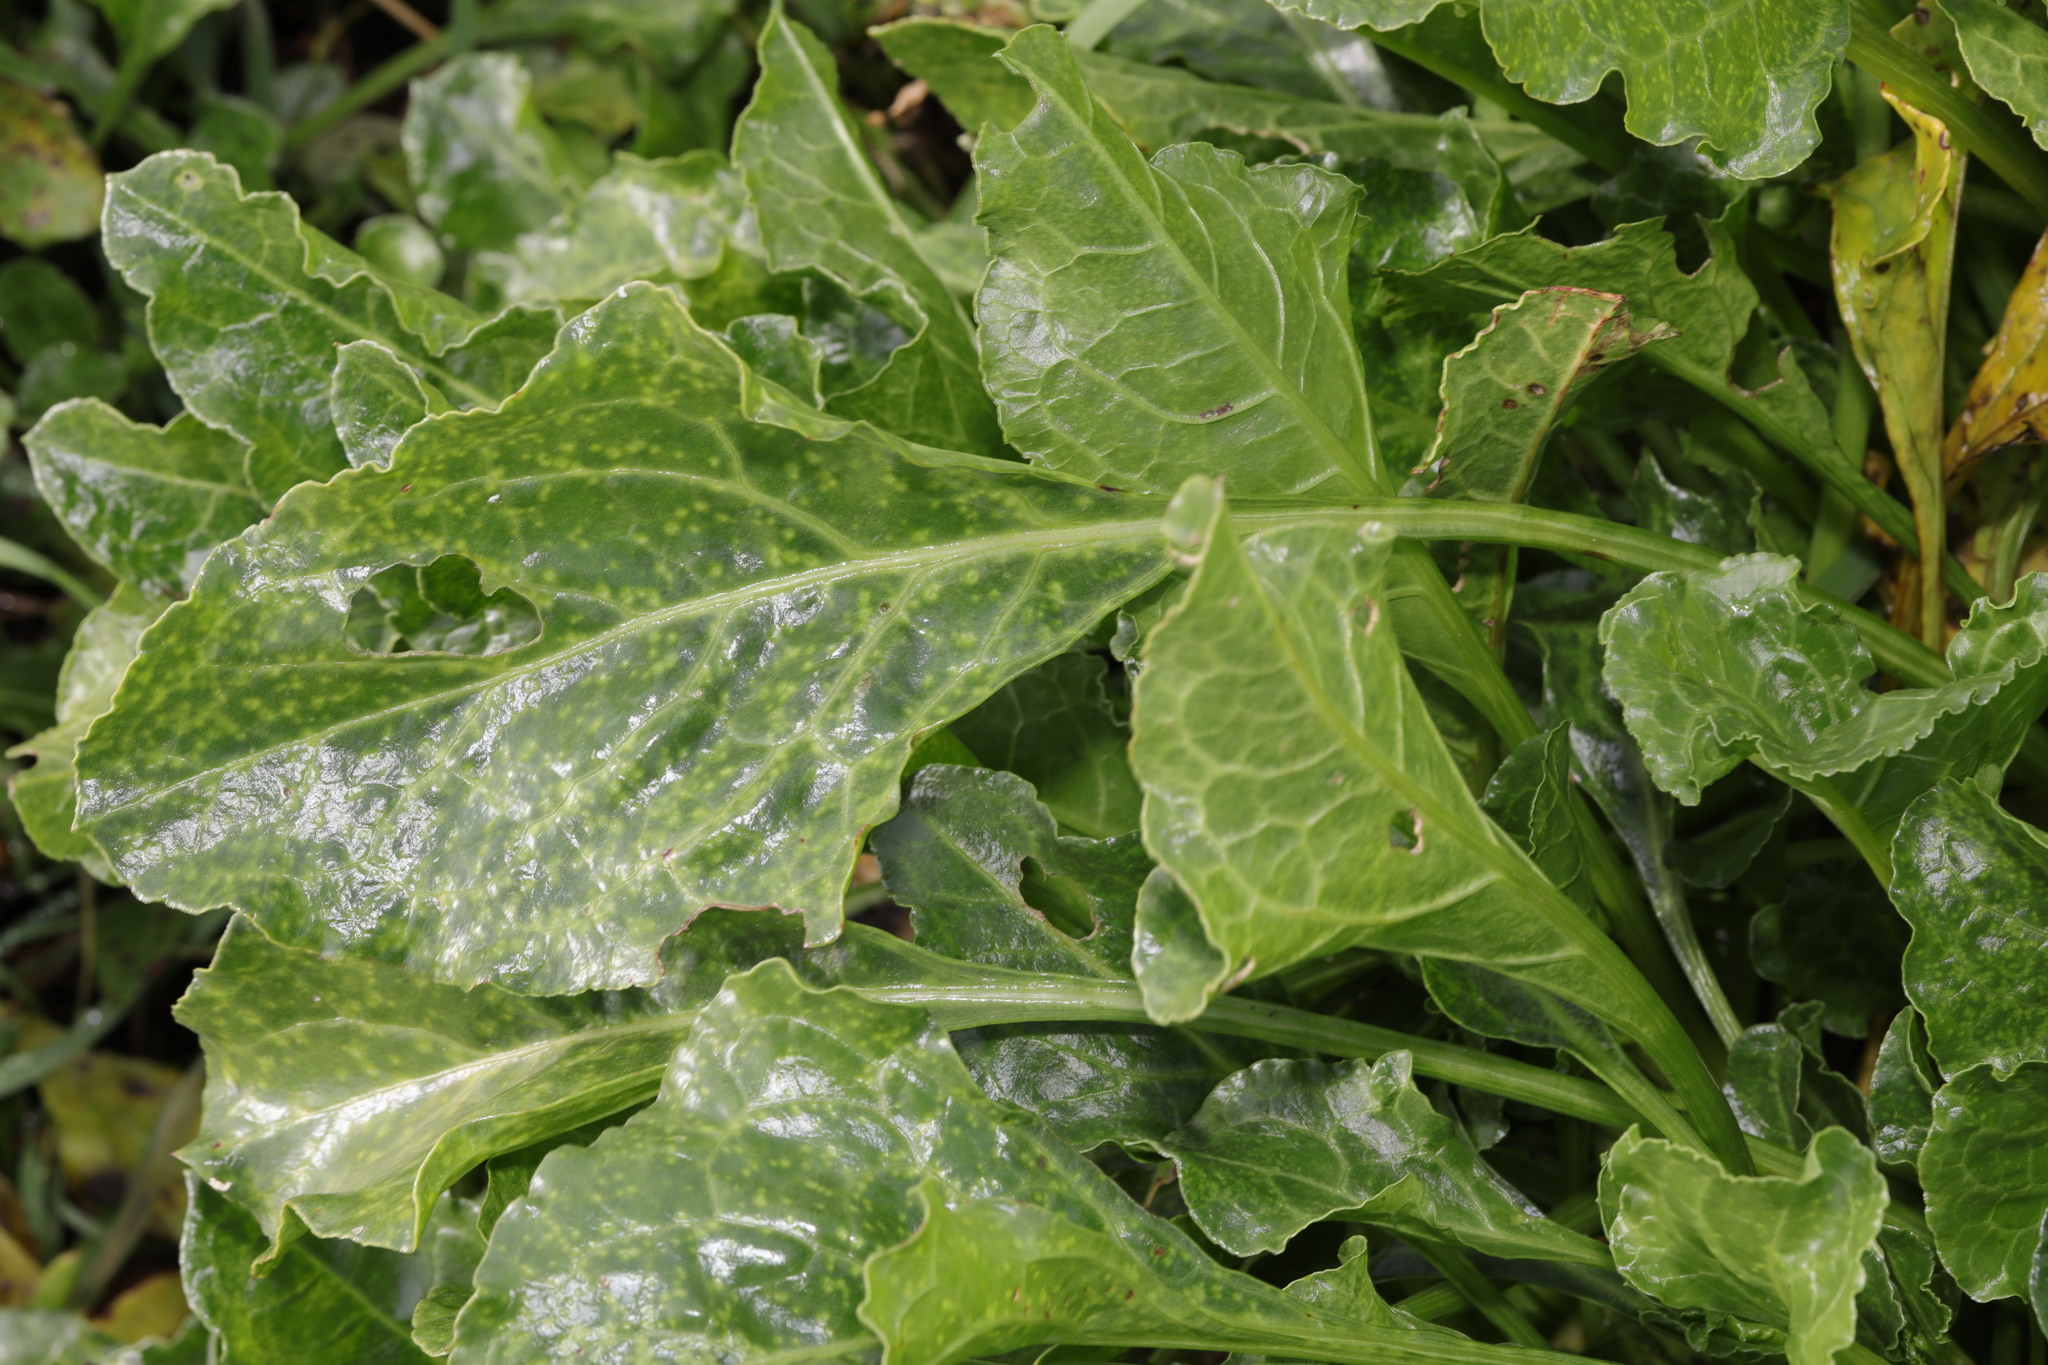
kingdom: Plantae
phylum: Tracheophyta
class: Magnoliopsida
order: Caryophyllales
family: Amaranthaceae
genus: Beta
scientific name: Beta vulgaris
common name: Beet
